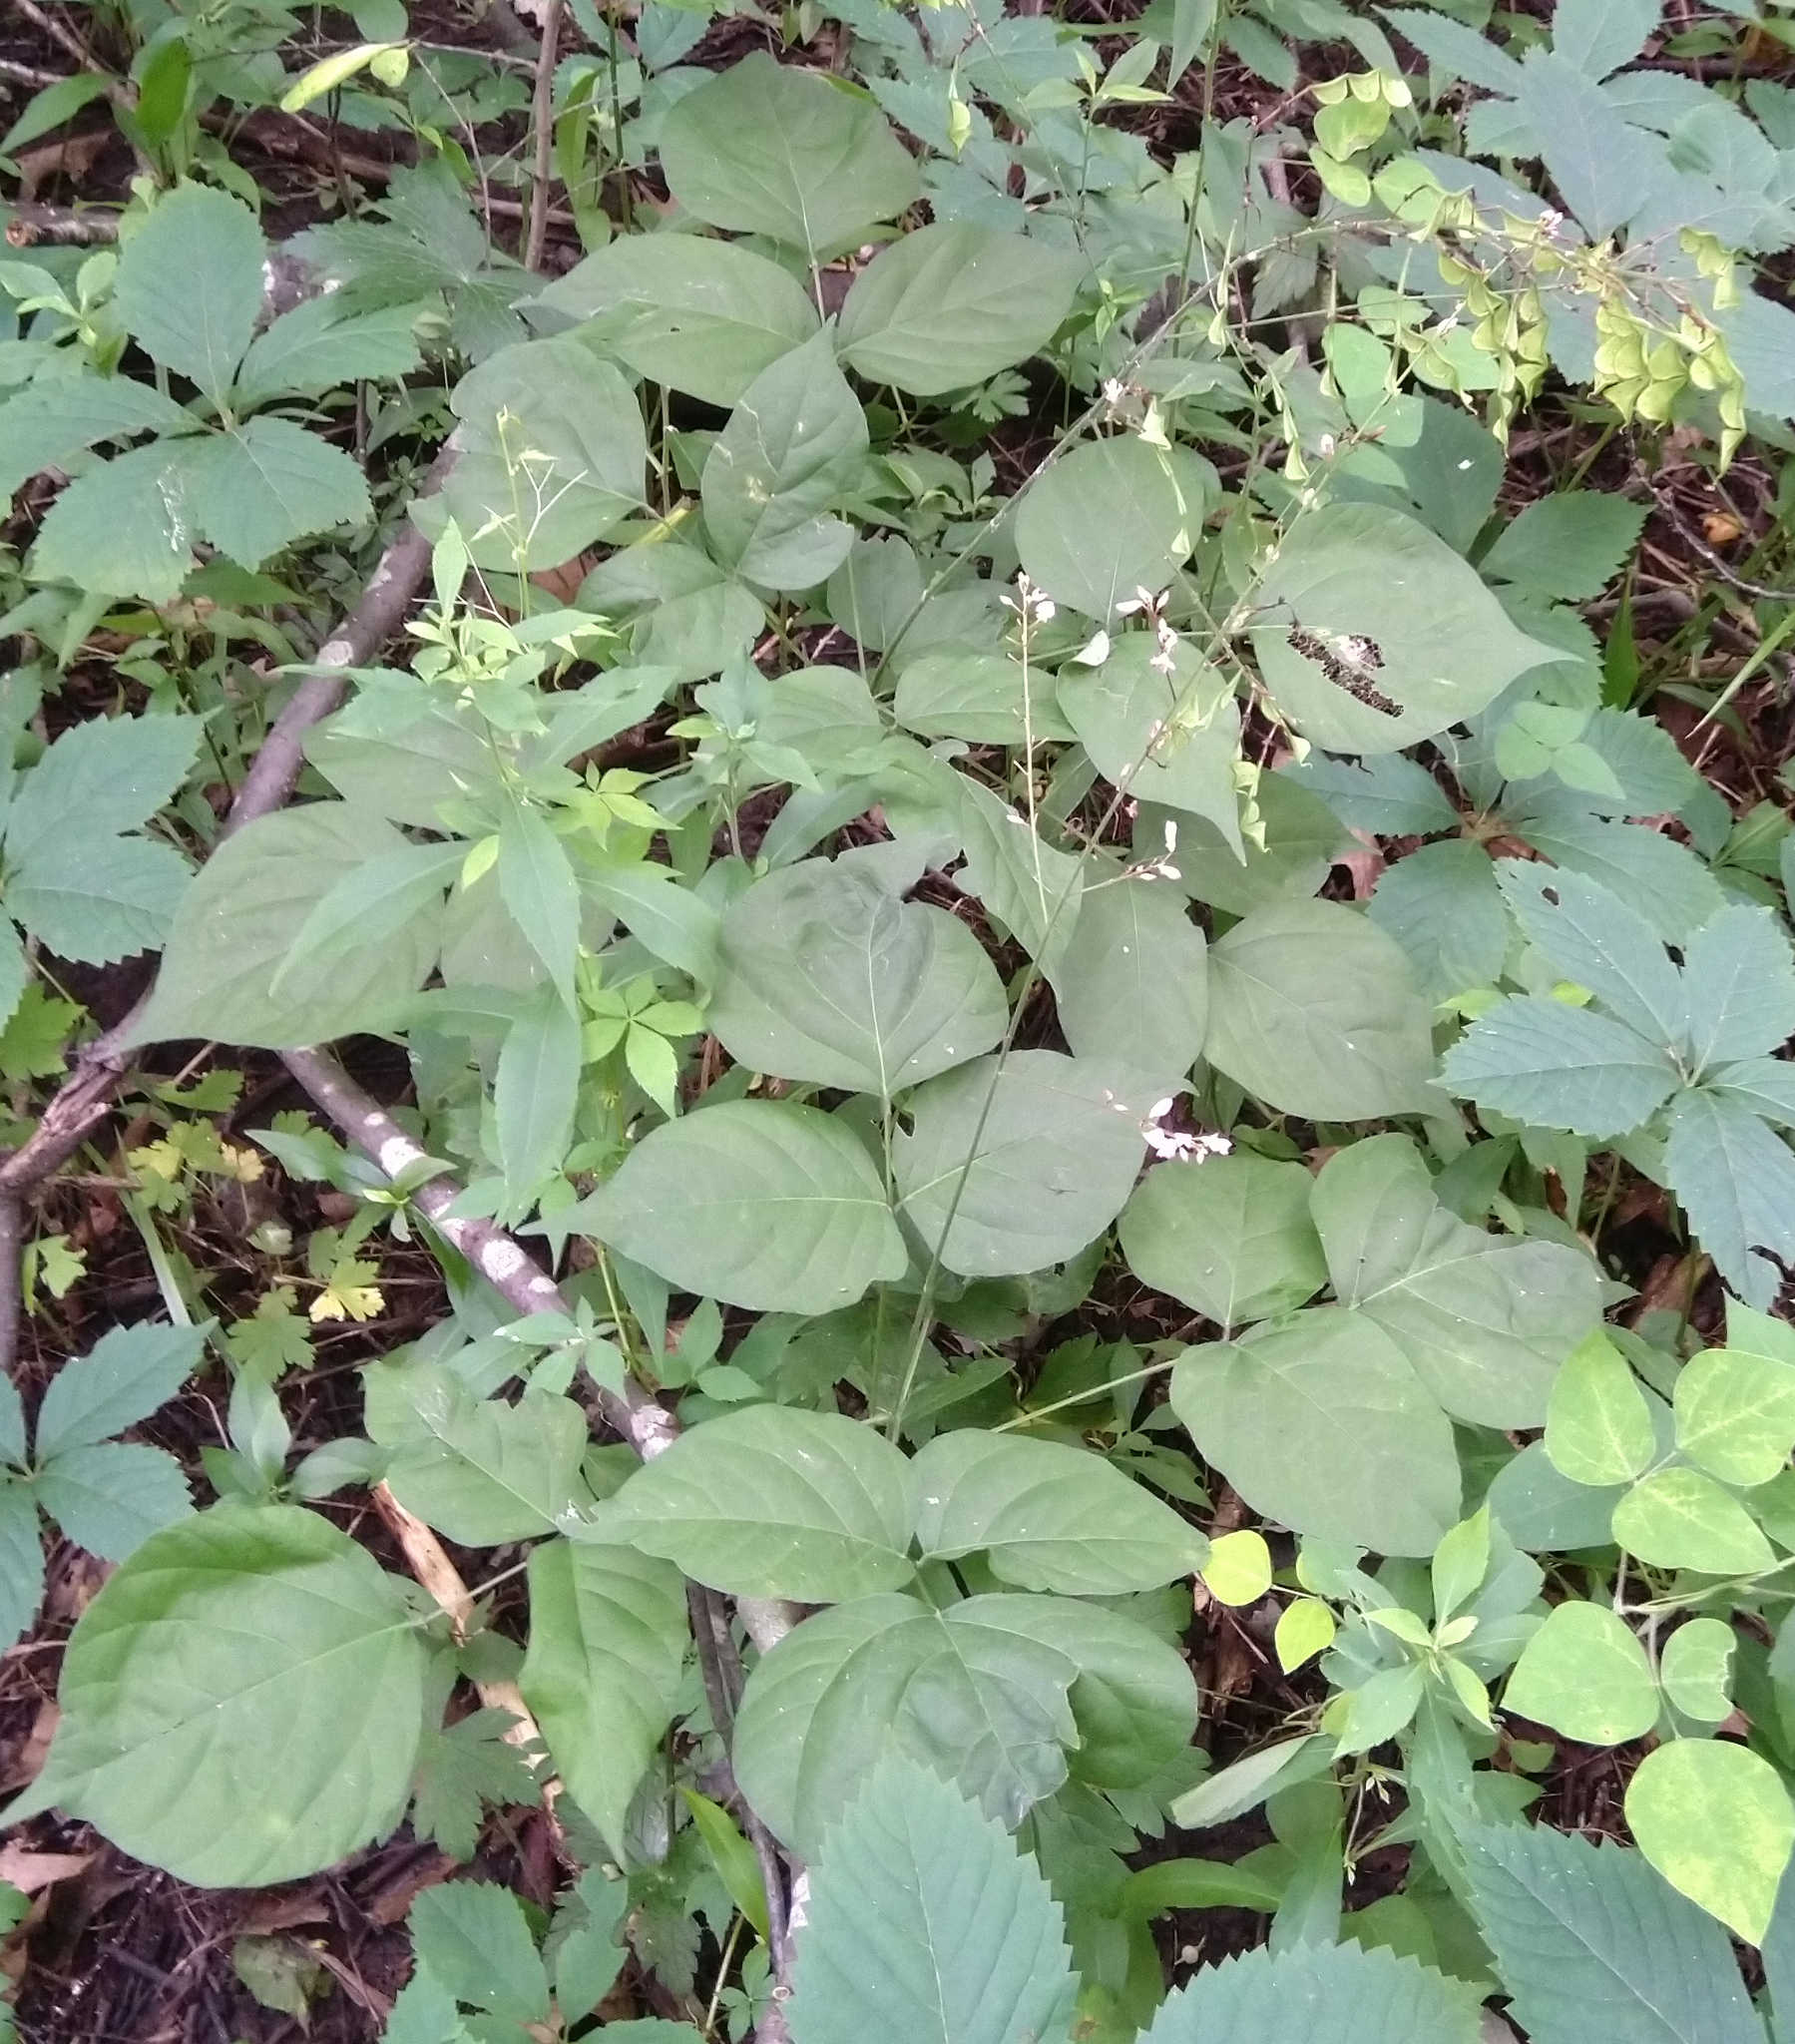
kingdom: Plantae
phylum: Tracheophyta
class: Magnoliopsida
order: Fabales
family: Fabaceae
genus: Hylodesmum
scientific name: Hylodesmum glutinosum
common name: Clustered-leaved tick-trefoil
